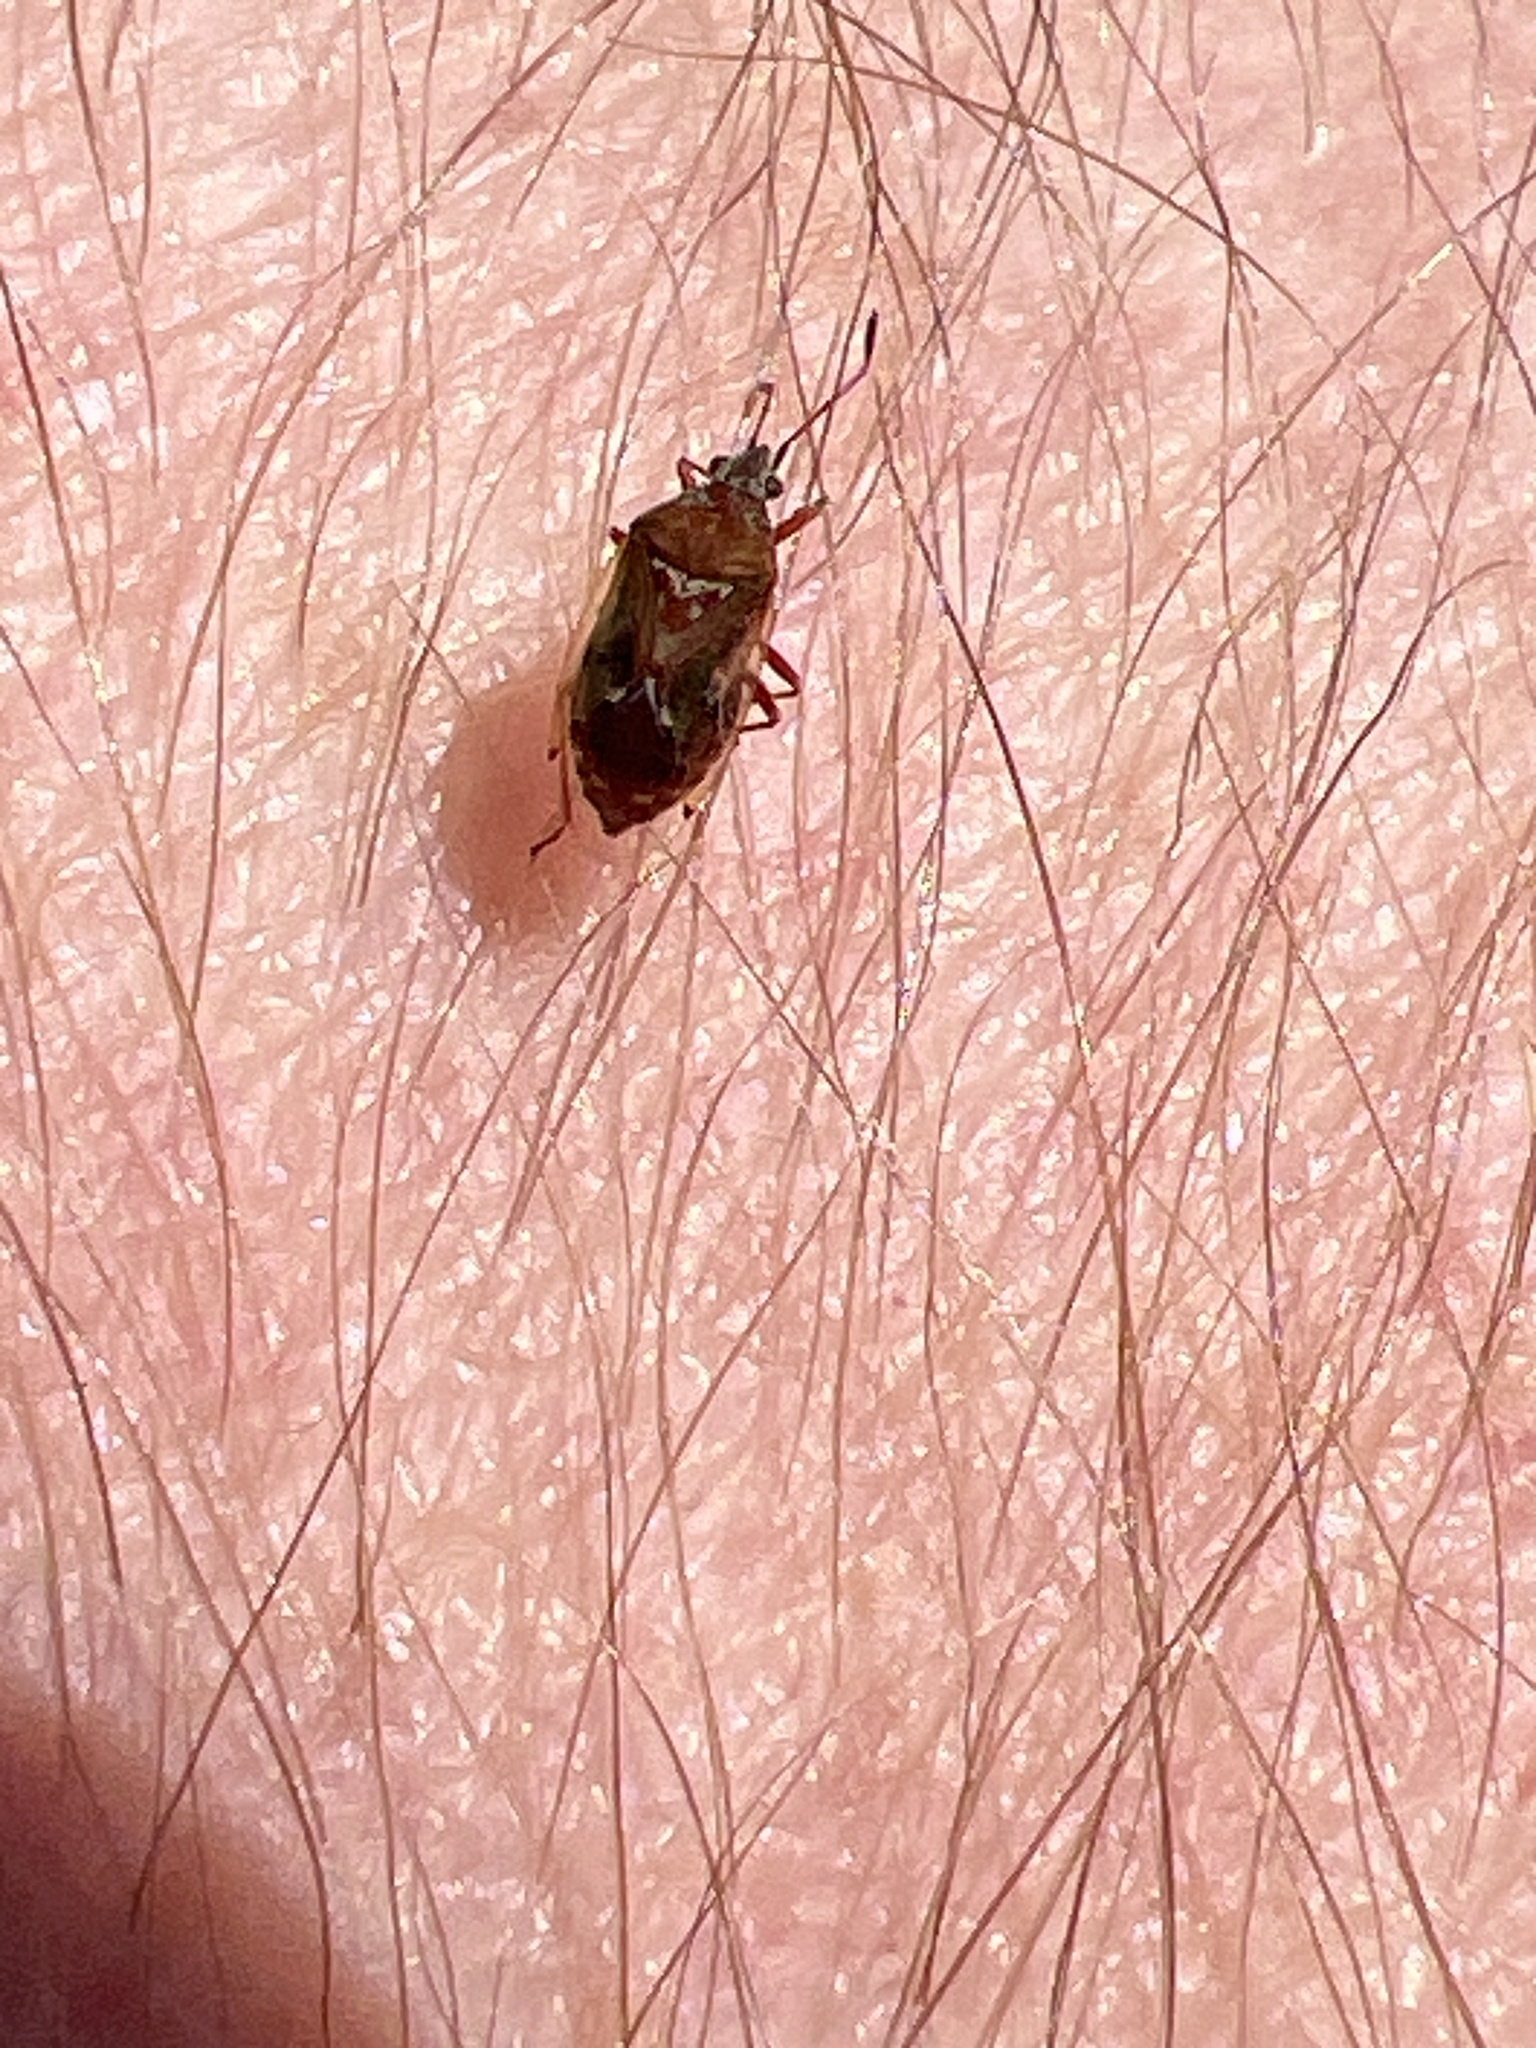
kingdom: Animalia
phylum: Arthropoda
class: Insecta
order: Hemiptera
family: Lygaeidae
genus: Kleidocerys
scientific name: Kleidocerys resedae
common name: Birch catkin bug
